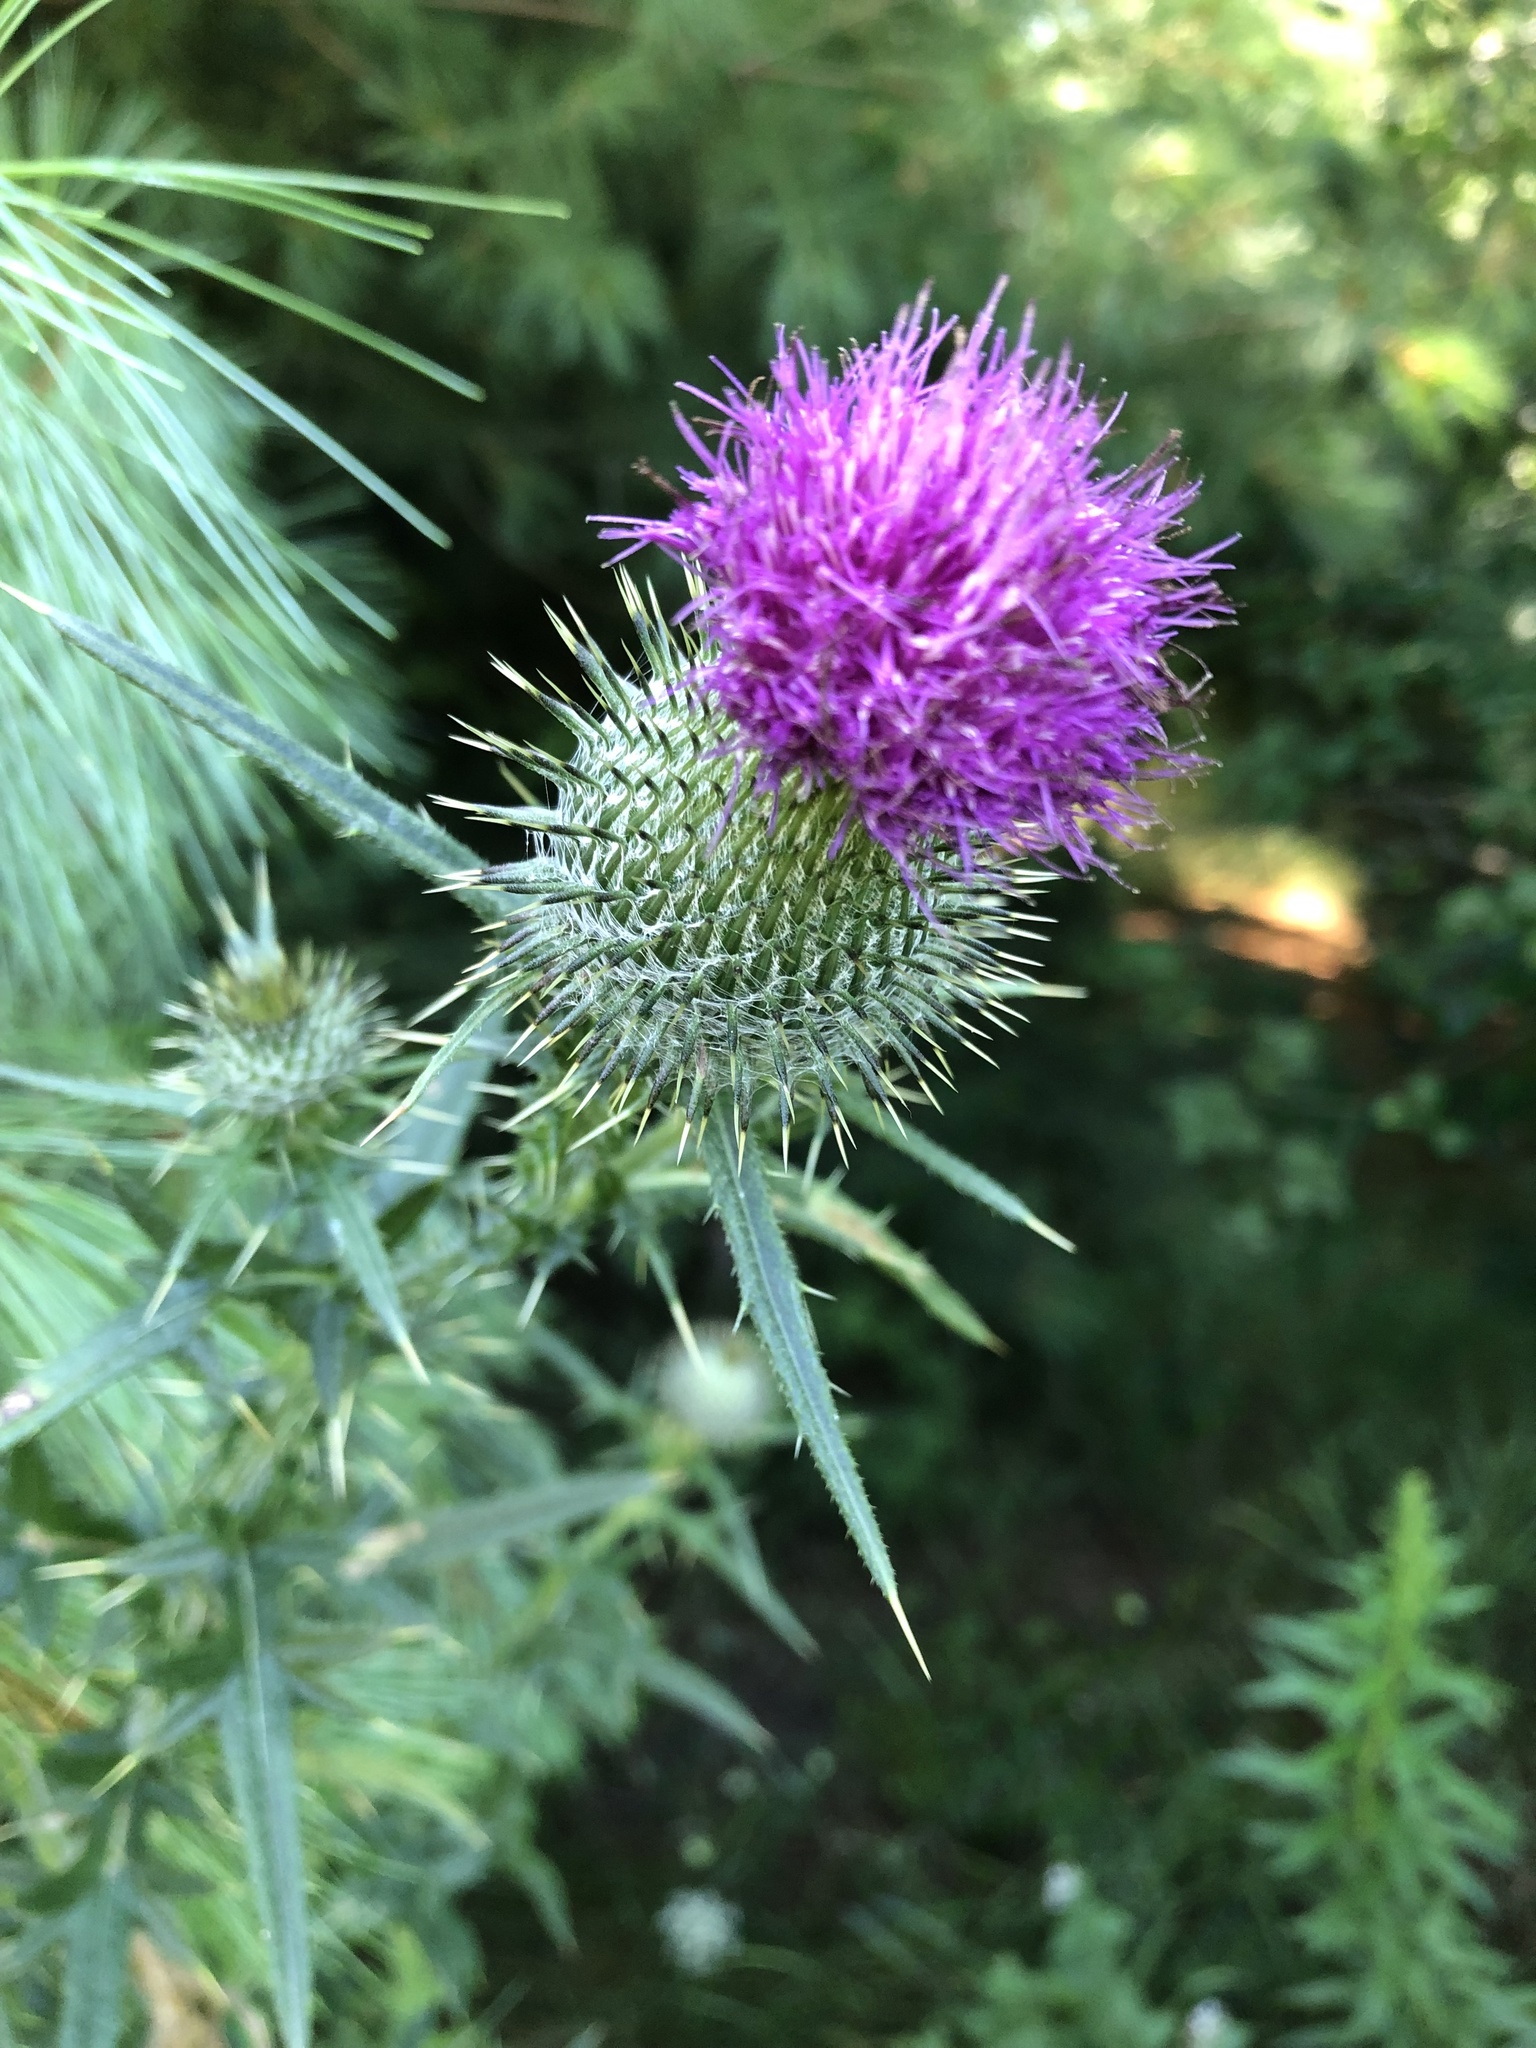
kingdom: Plantae
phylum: Tracheophyta
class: Magnoliopsida
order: Asterales
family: Asteraceae
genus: Cirsium
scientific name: Cirsium vulgare
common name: Bull thistle
